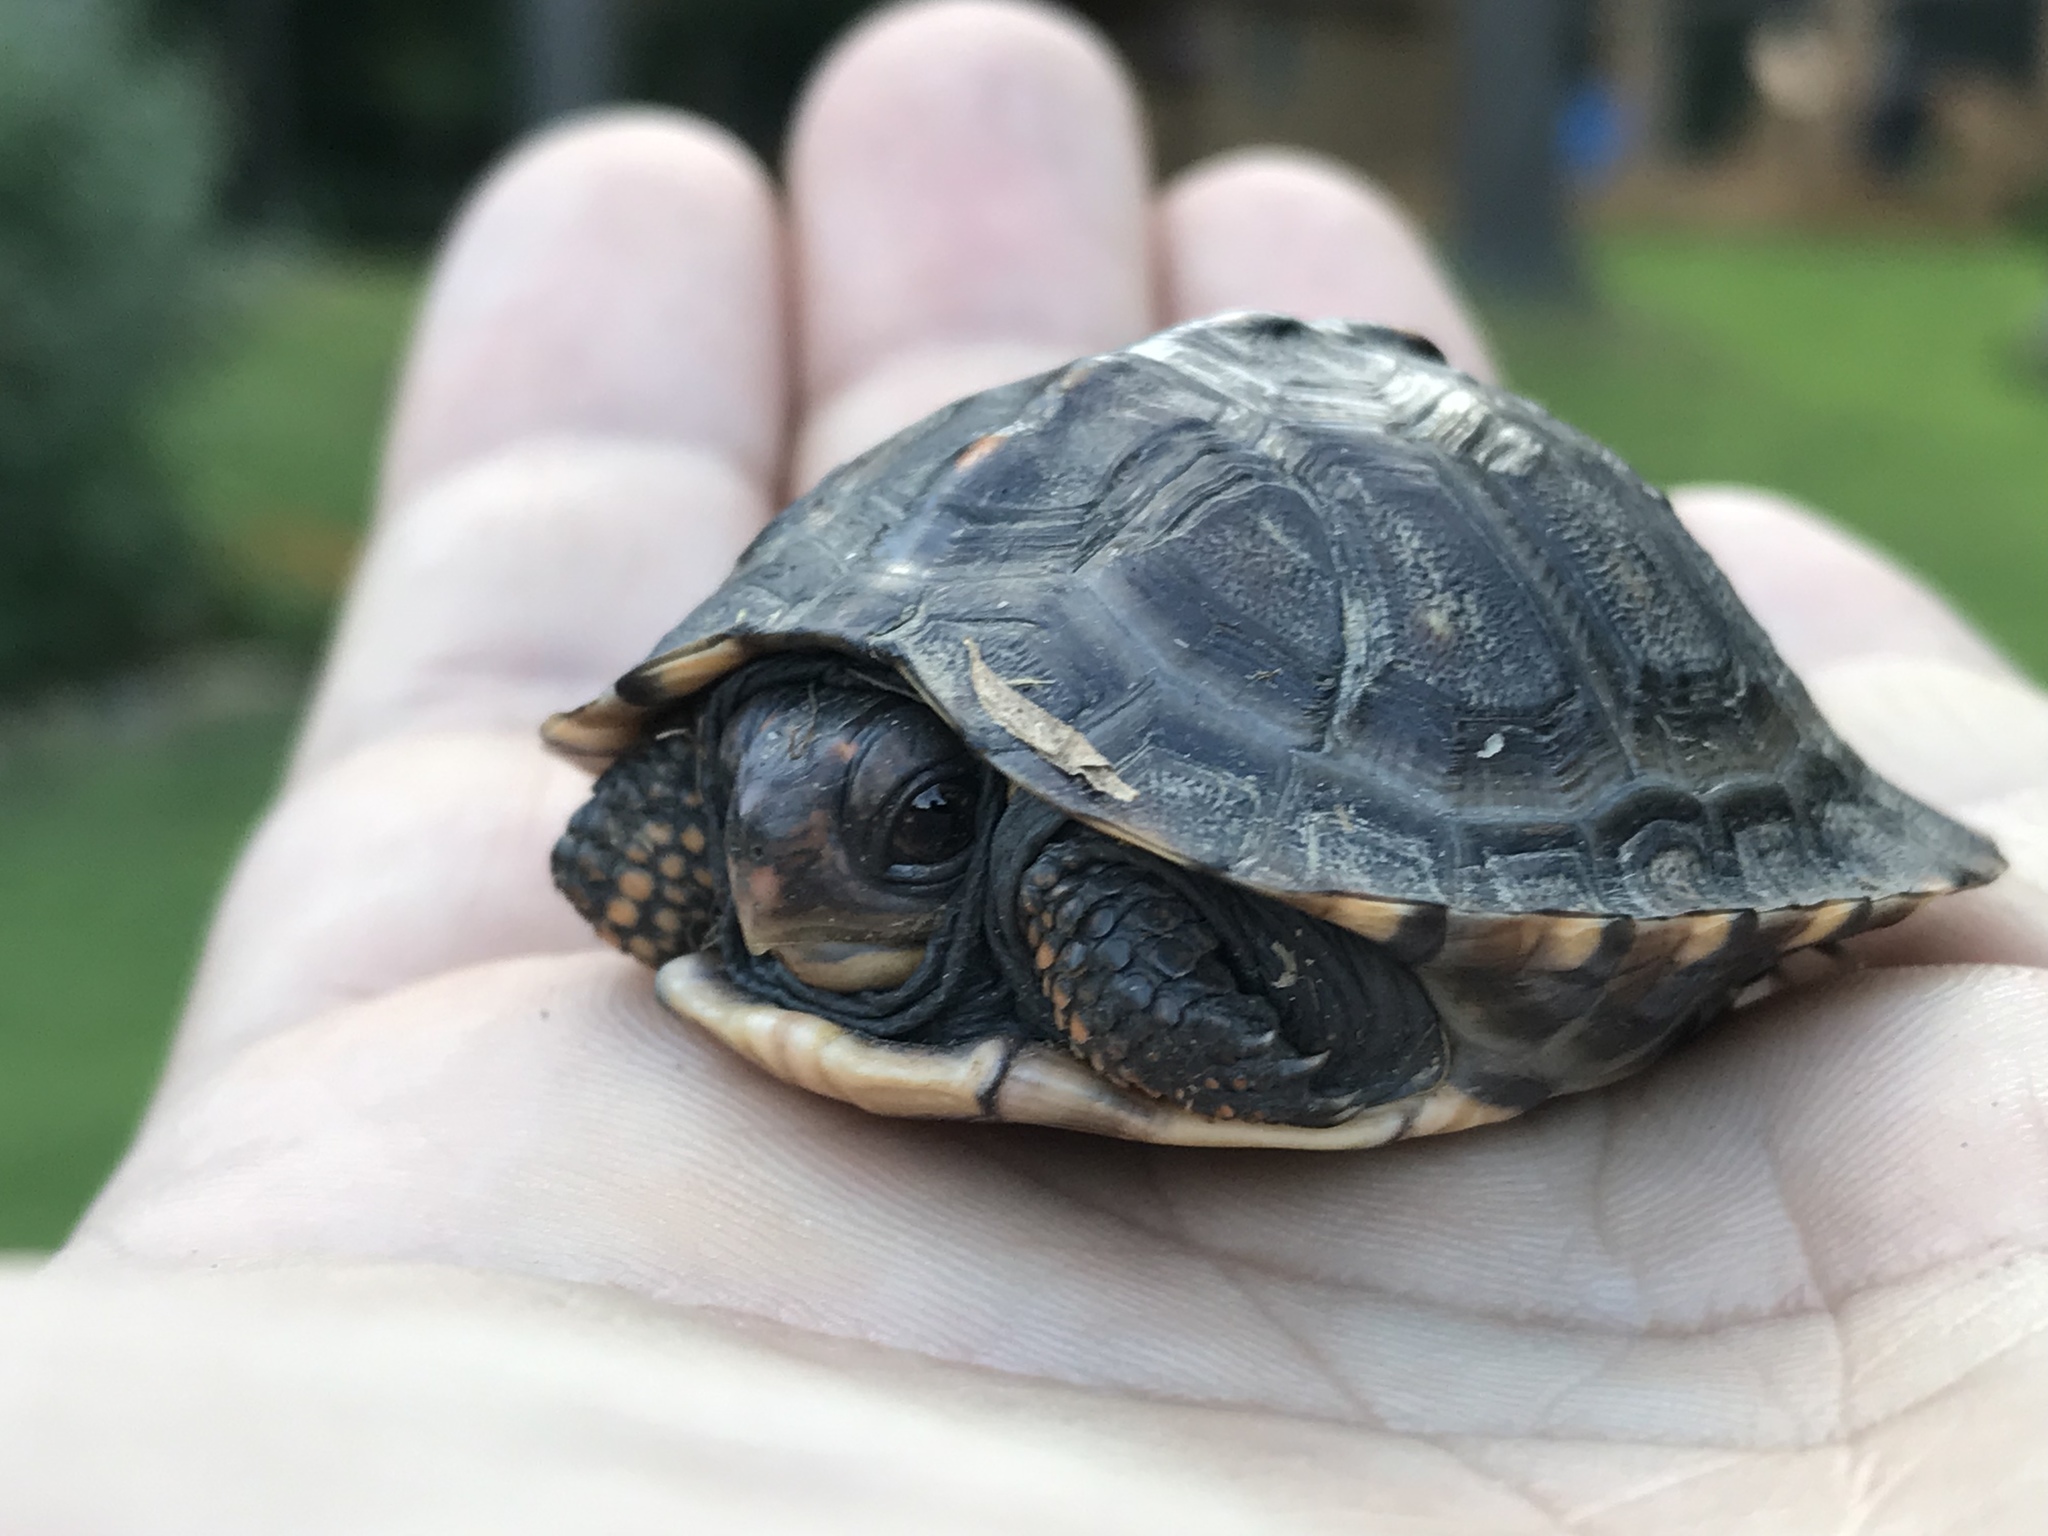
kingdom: Animalia
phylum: Chordata
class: Testudines
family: Emydidae
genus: Terrapene
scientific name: Terrapene carolina
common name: Common box turtle
